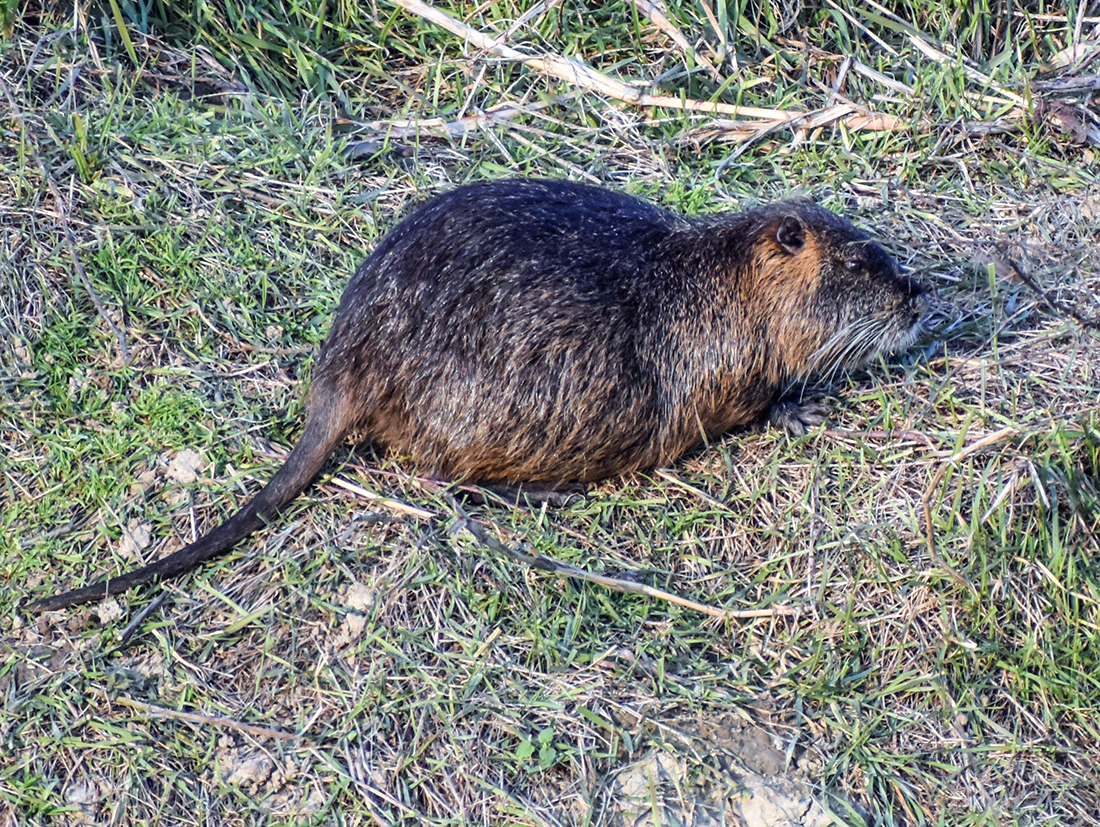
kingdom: Animalia
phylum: Chordata
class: Mammalia
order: Rodentia
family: Myocastoridae
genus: Myocastor
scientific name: Myocastor coypus
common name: Coypu
